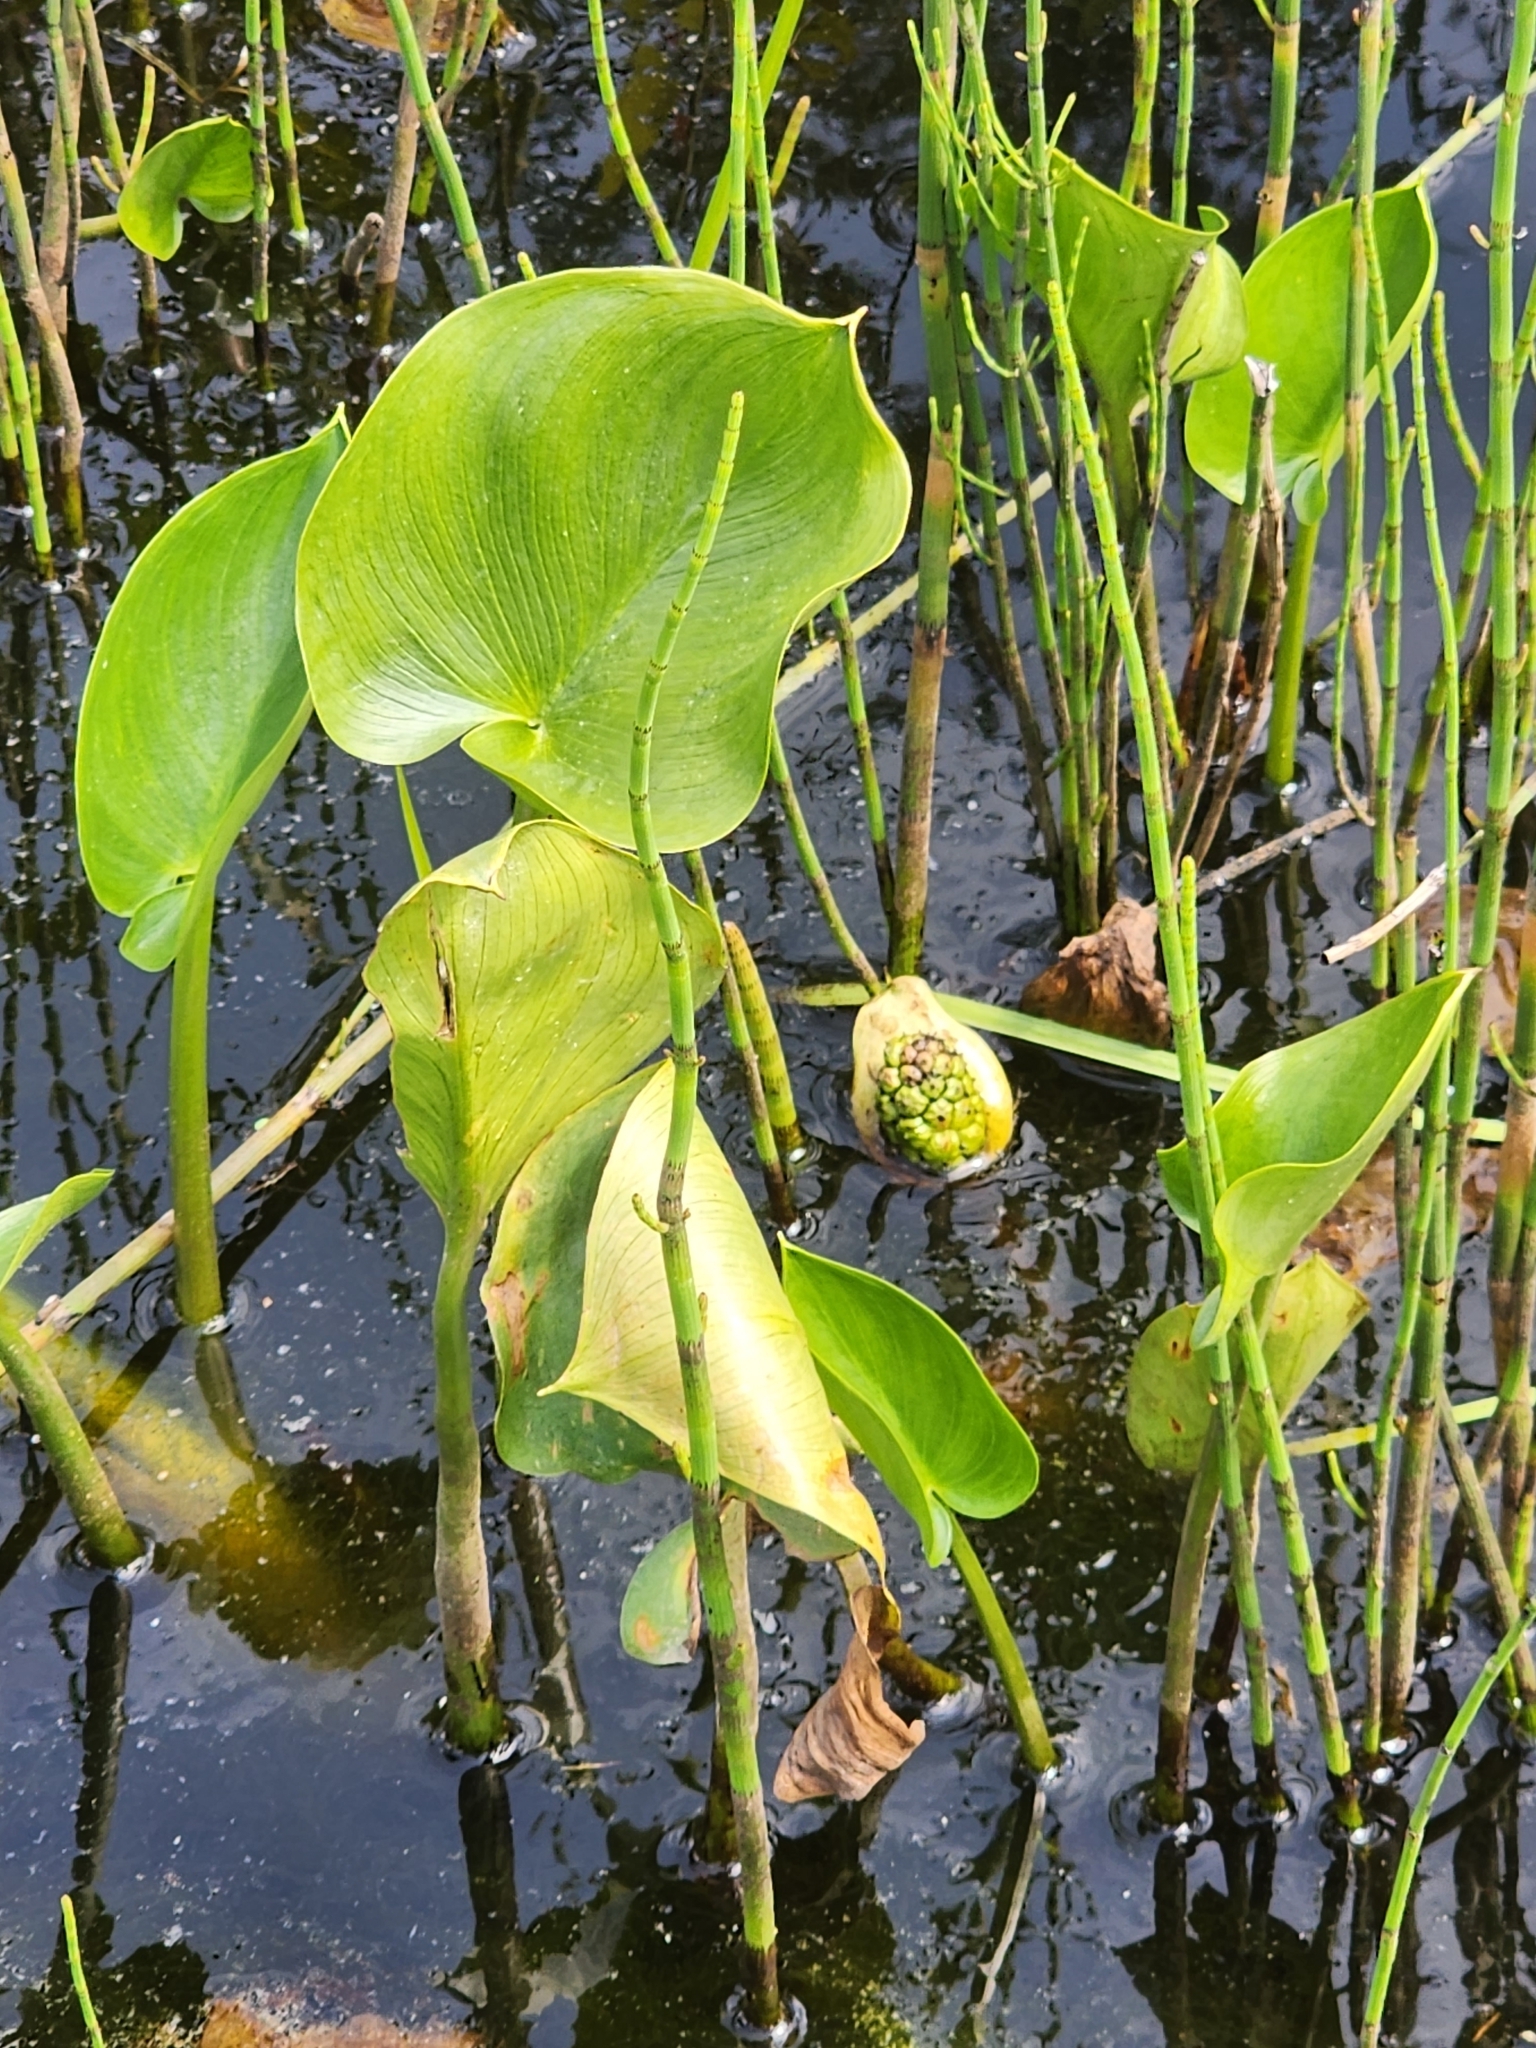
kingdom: Plantae
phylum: Tracheophyta
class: Liliopsida
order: Alismatales
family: Araceae
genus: Calla
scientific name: Calla palustris
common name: Bog arum
